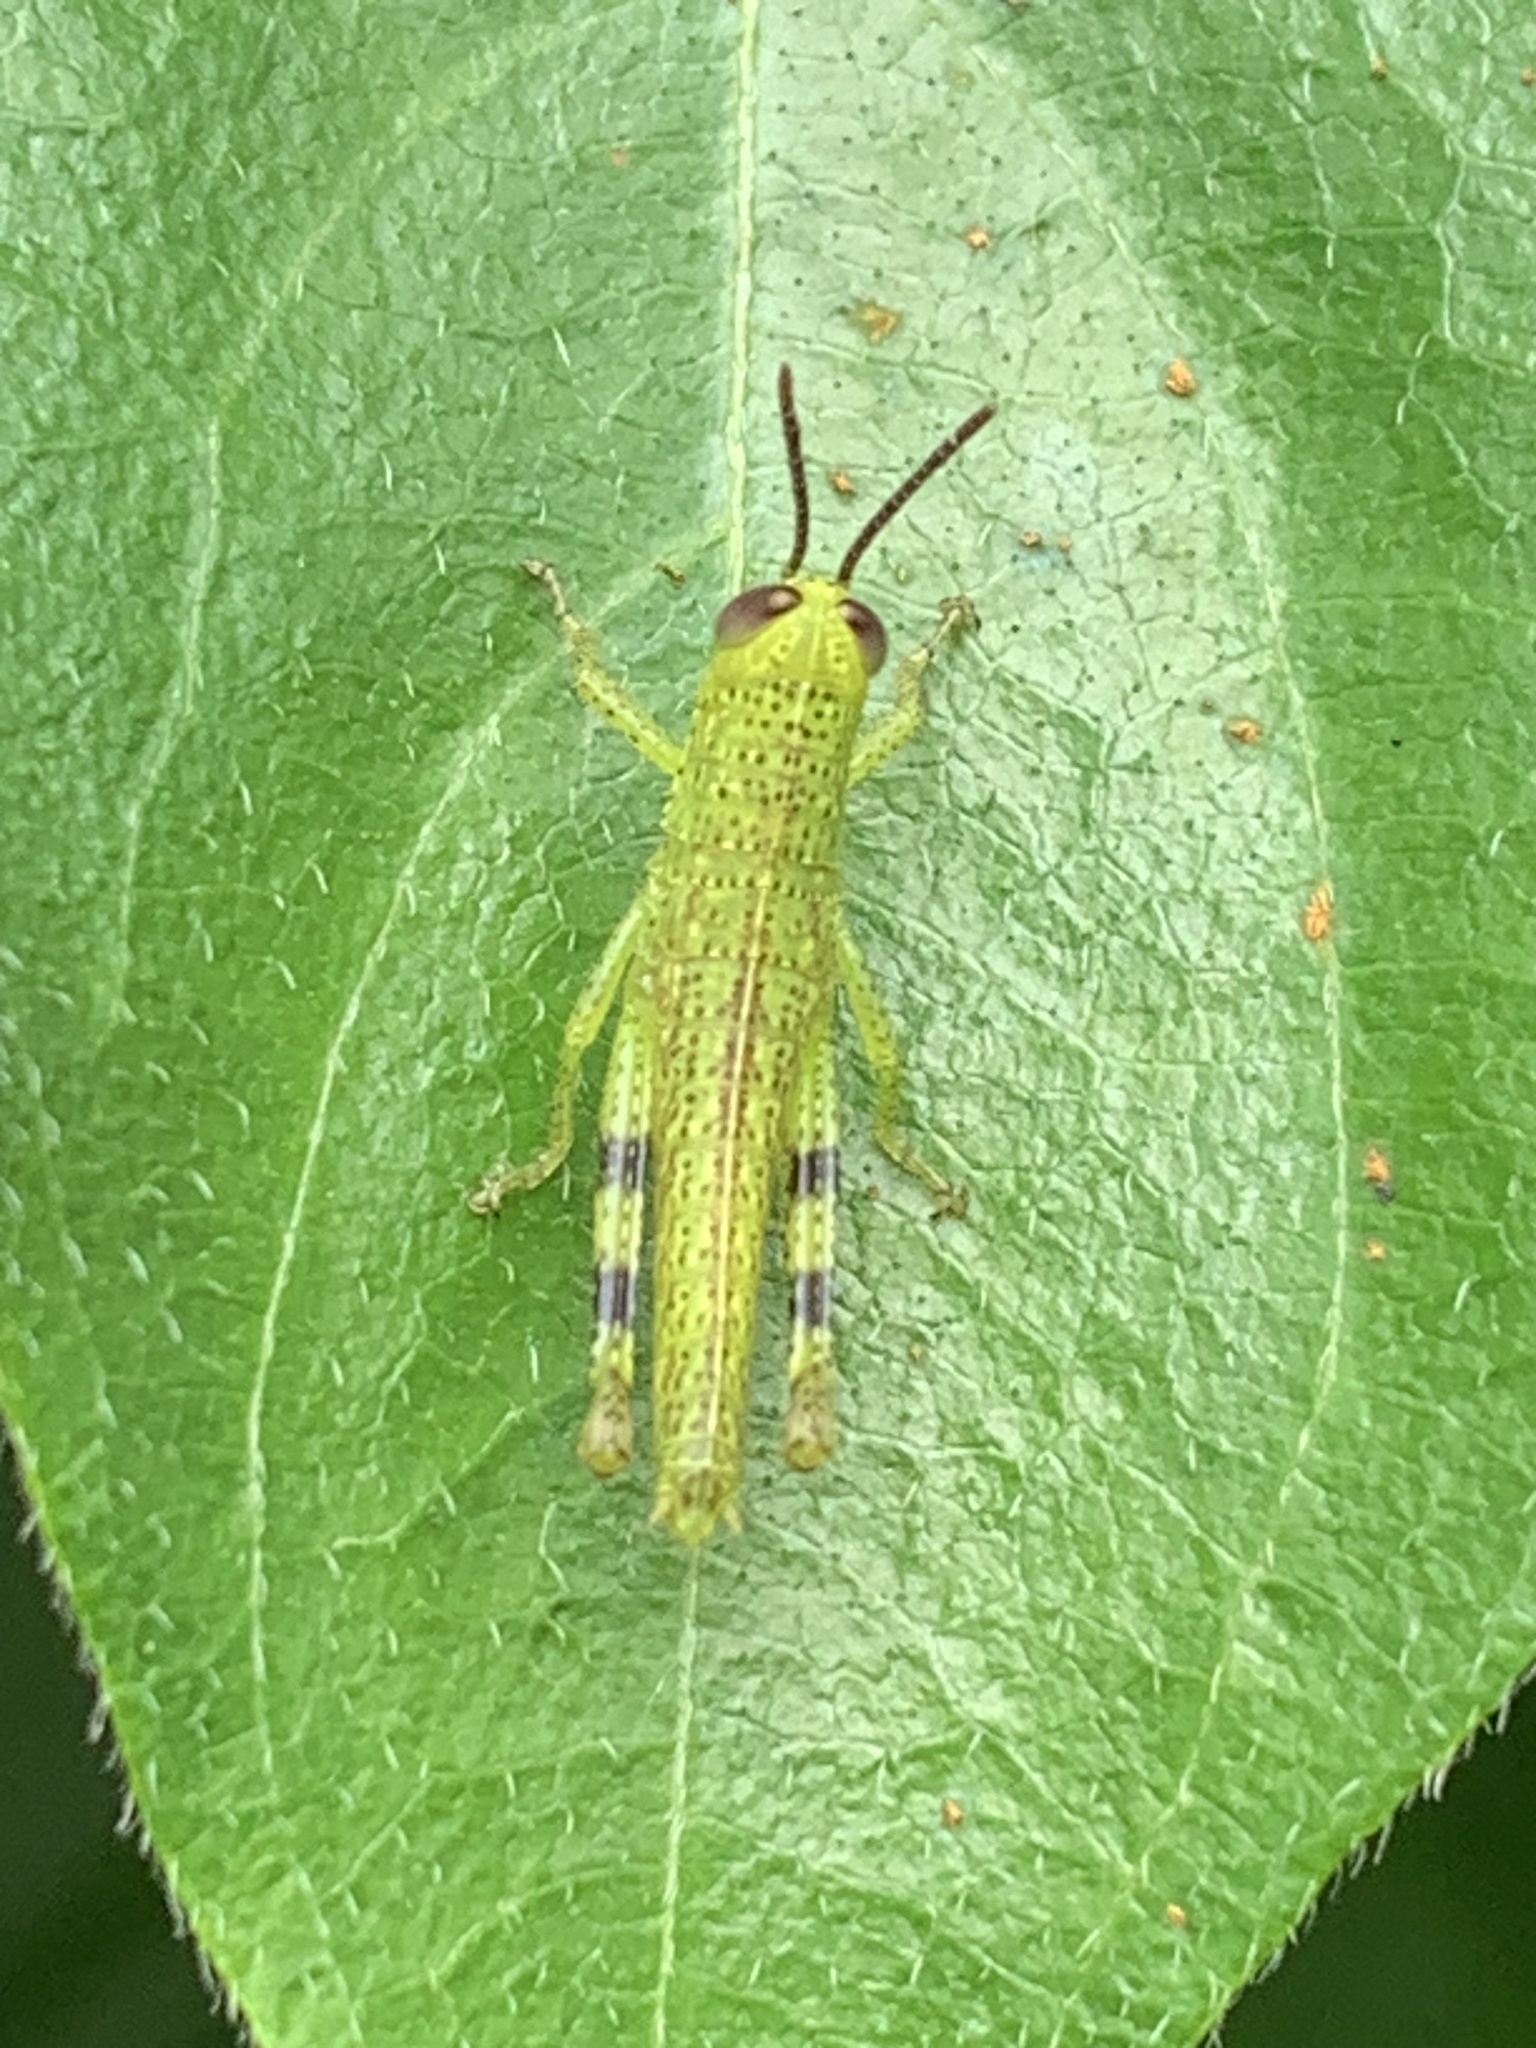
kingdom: Animalia
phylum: Arthropoda
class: Insecta
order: Orthoptera
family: Acrididae
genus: Valanga
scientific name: Valanga irregularis
